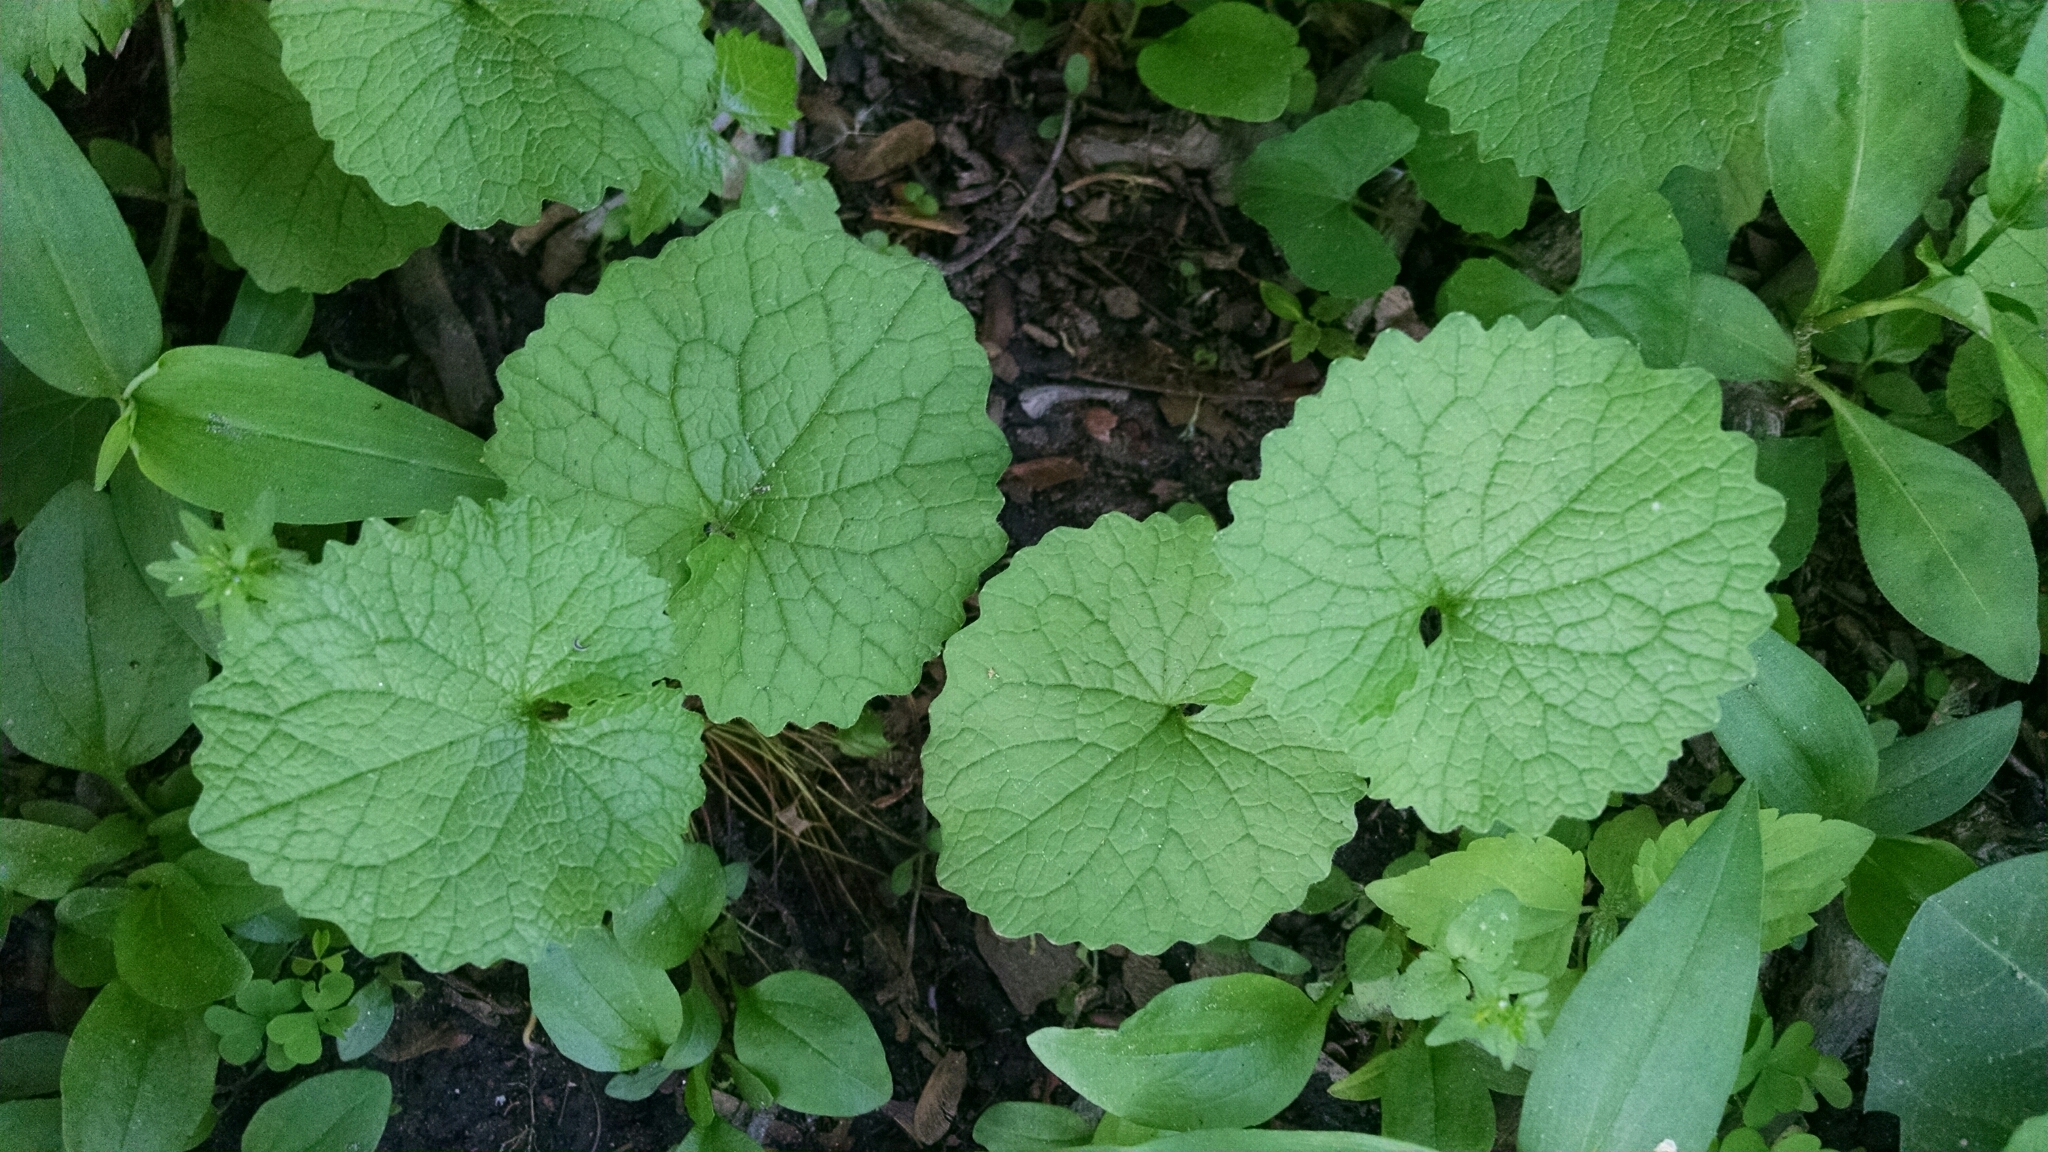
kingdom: Plantae
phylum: Tracheophyta
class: Magnoliopsida
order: Brassicales
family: Brassicaceae
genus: Alliaria
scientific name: Alliaria petiolata
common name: Garlic mustard
